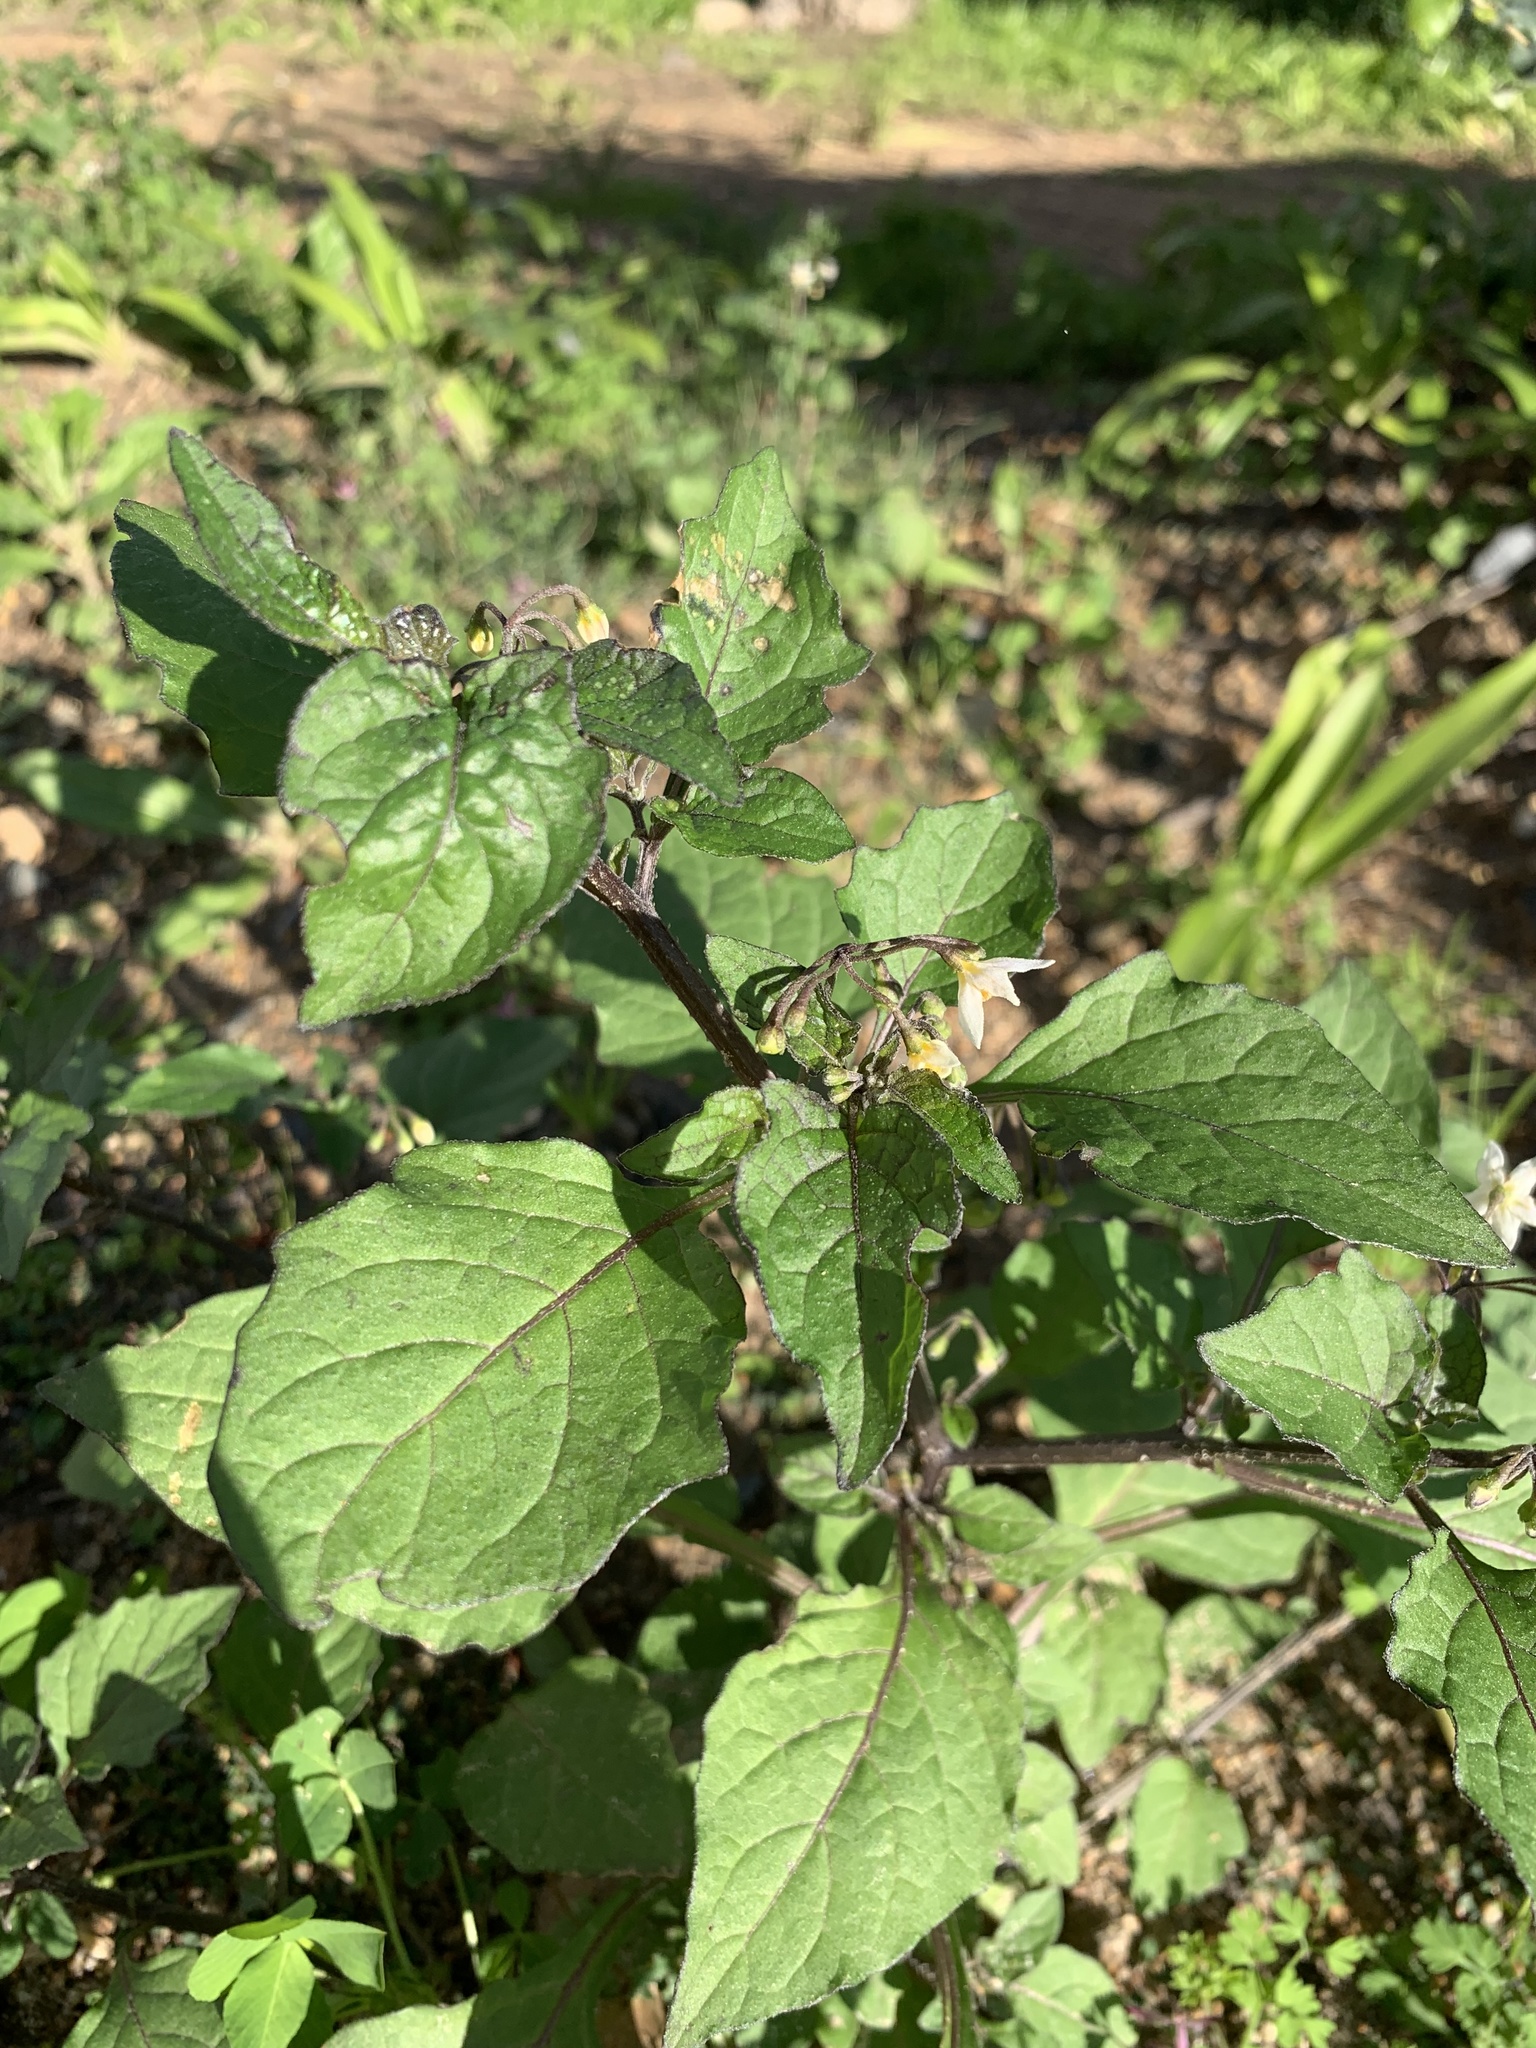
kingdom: Plantae
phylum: Tracheophyta
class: Magnoliopsida
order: Solanales
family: Solanaceae
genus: Solanum
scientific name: Solanum nigrum
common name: Black nightshade
